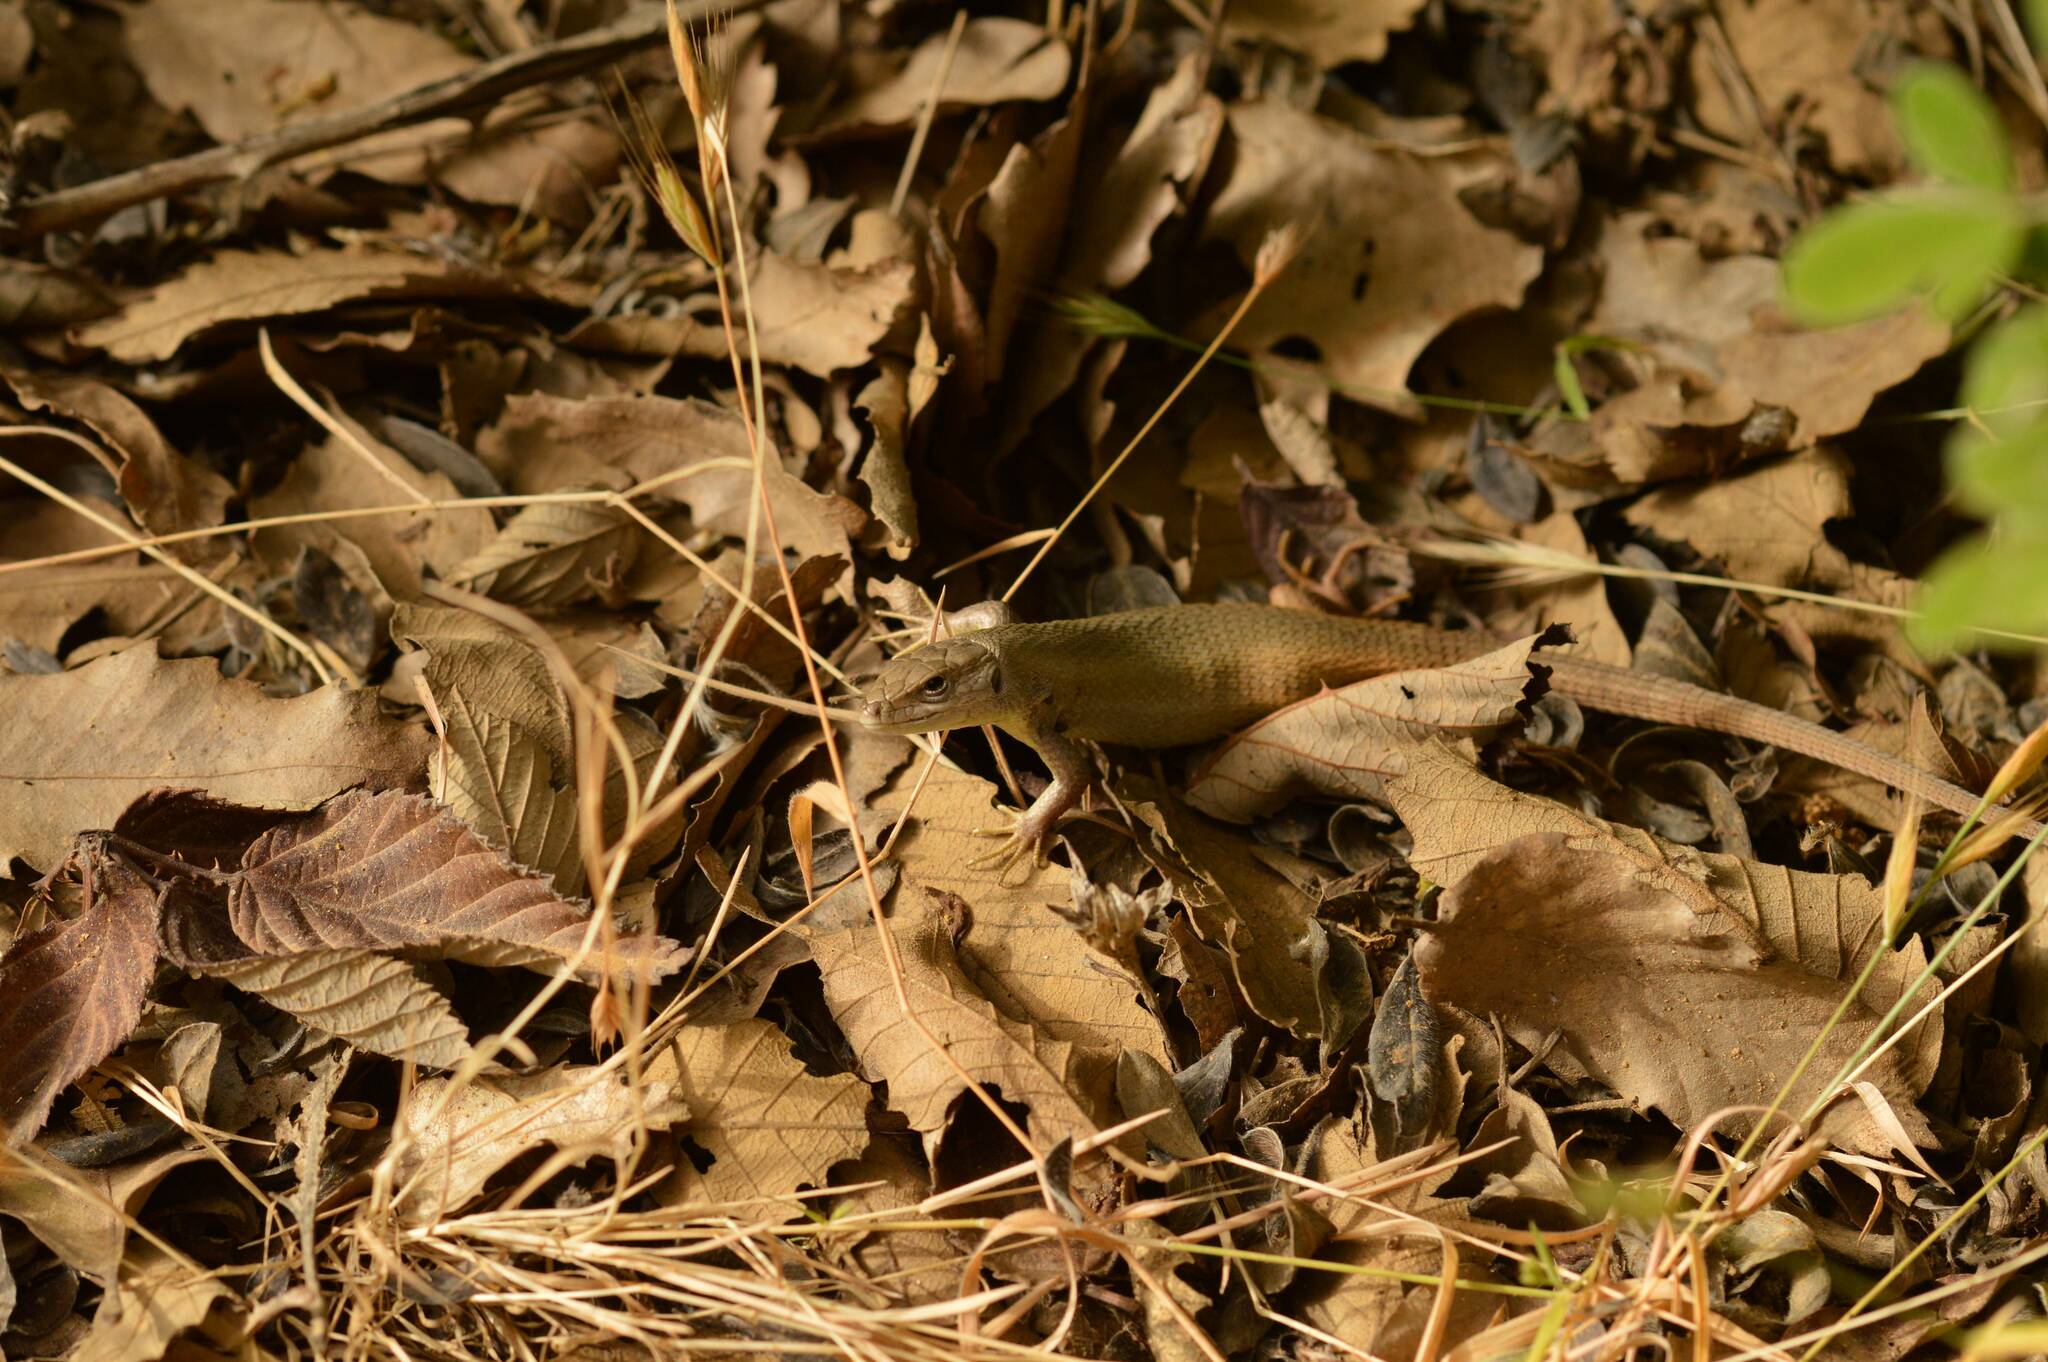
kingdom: Animalia
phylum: Chordata
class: Squamata
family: Lacertidae
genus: Psammodromus
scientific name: Psammodromus algirus
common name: Algerian psammodromus
